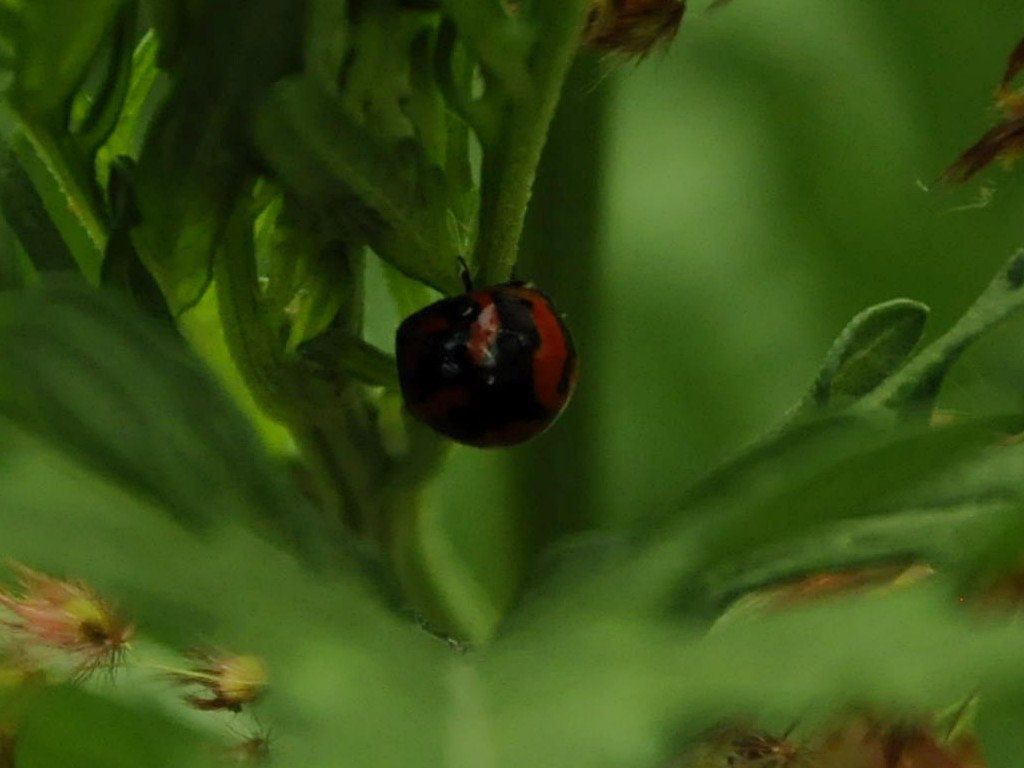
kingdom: Animalia
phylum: Arthropoda
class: Insecta
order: Coleoptera
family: Coccinellidae
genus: Coccinella
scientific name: Coccinella transversalis
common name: Transverse lady beetle
